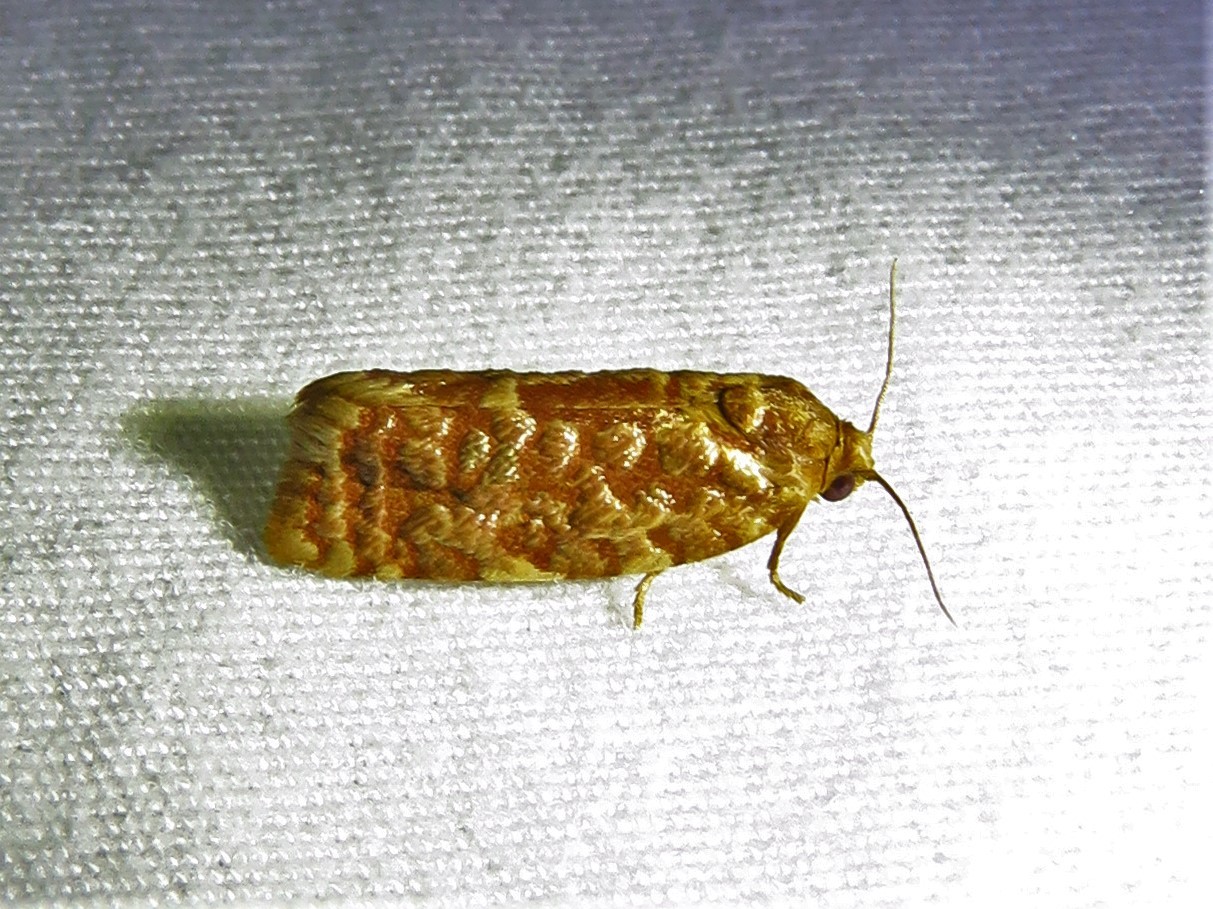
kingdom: Animalia
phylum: Arthropoda
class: Insecta
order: Lepidoptera
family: Tortricidae
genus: Choristoneura
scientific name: Choristoneura houstonana
